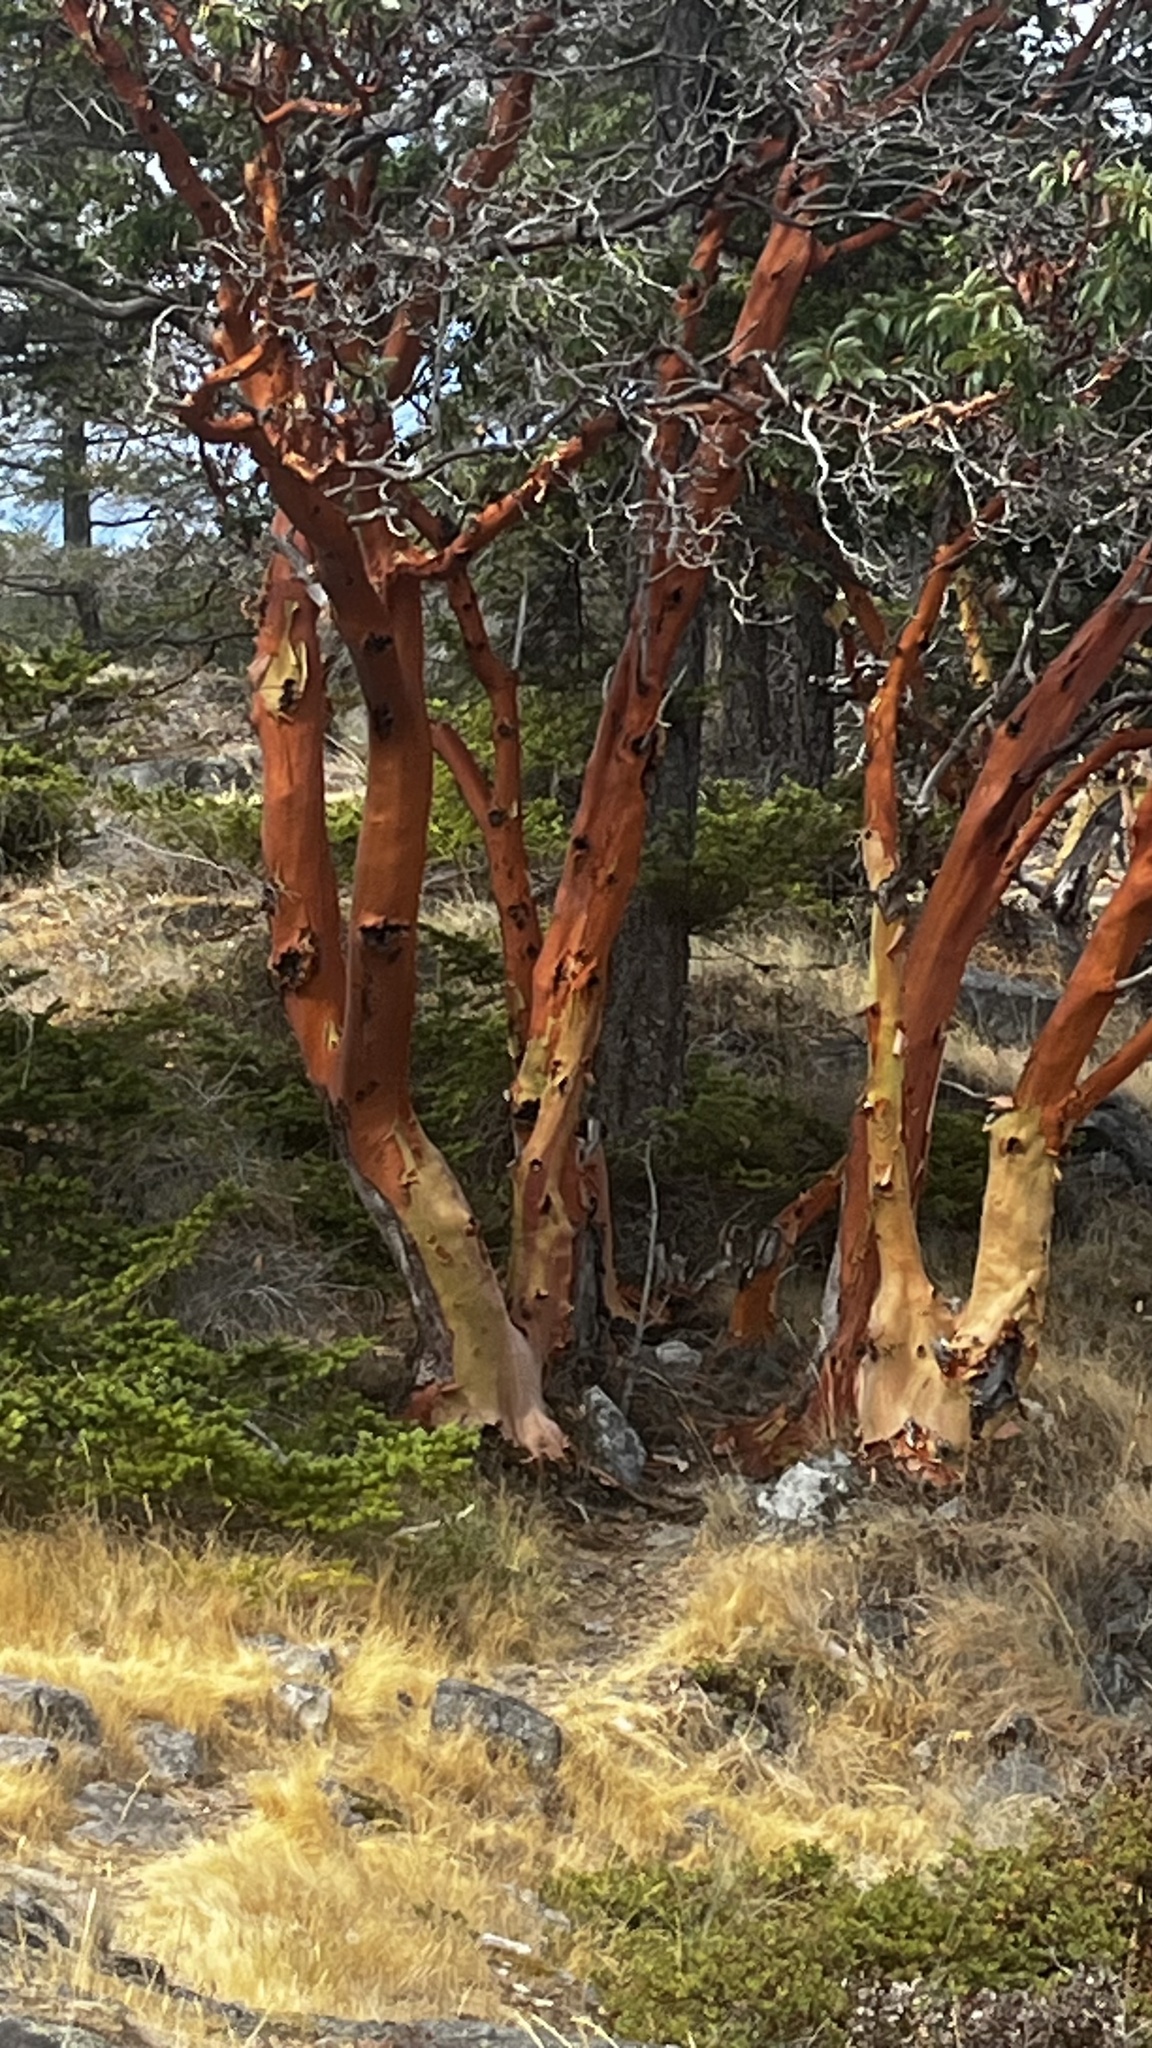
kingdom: Plantae
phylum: Tracheophyta
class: Magnoliopsida
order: Ericales
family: Ericaceae
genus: Arbutus
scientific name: Arbutus menziesii
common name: Pacific madrone
